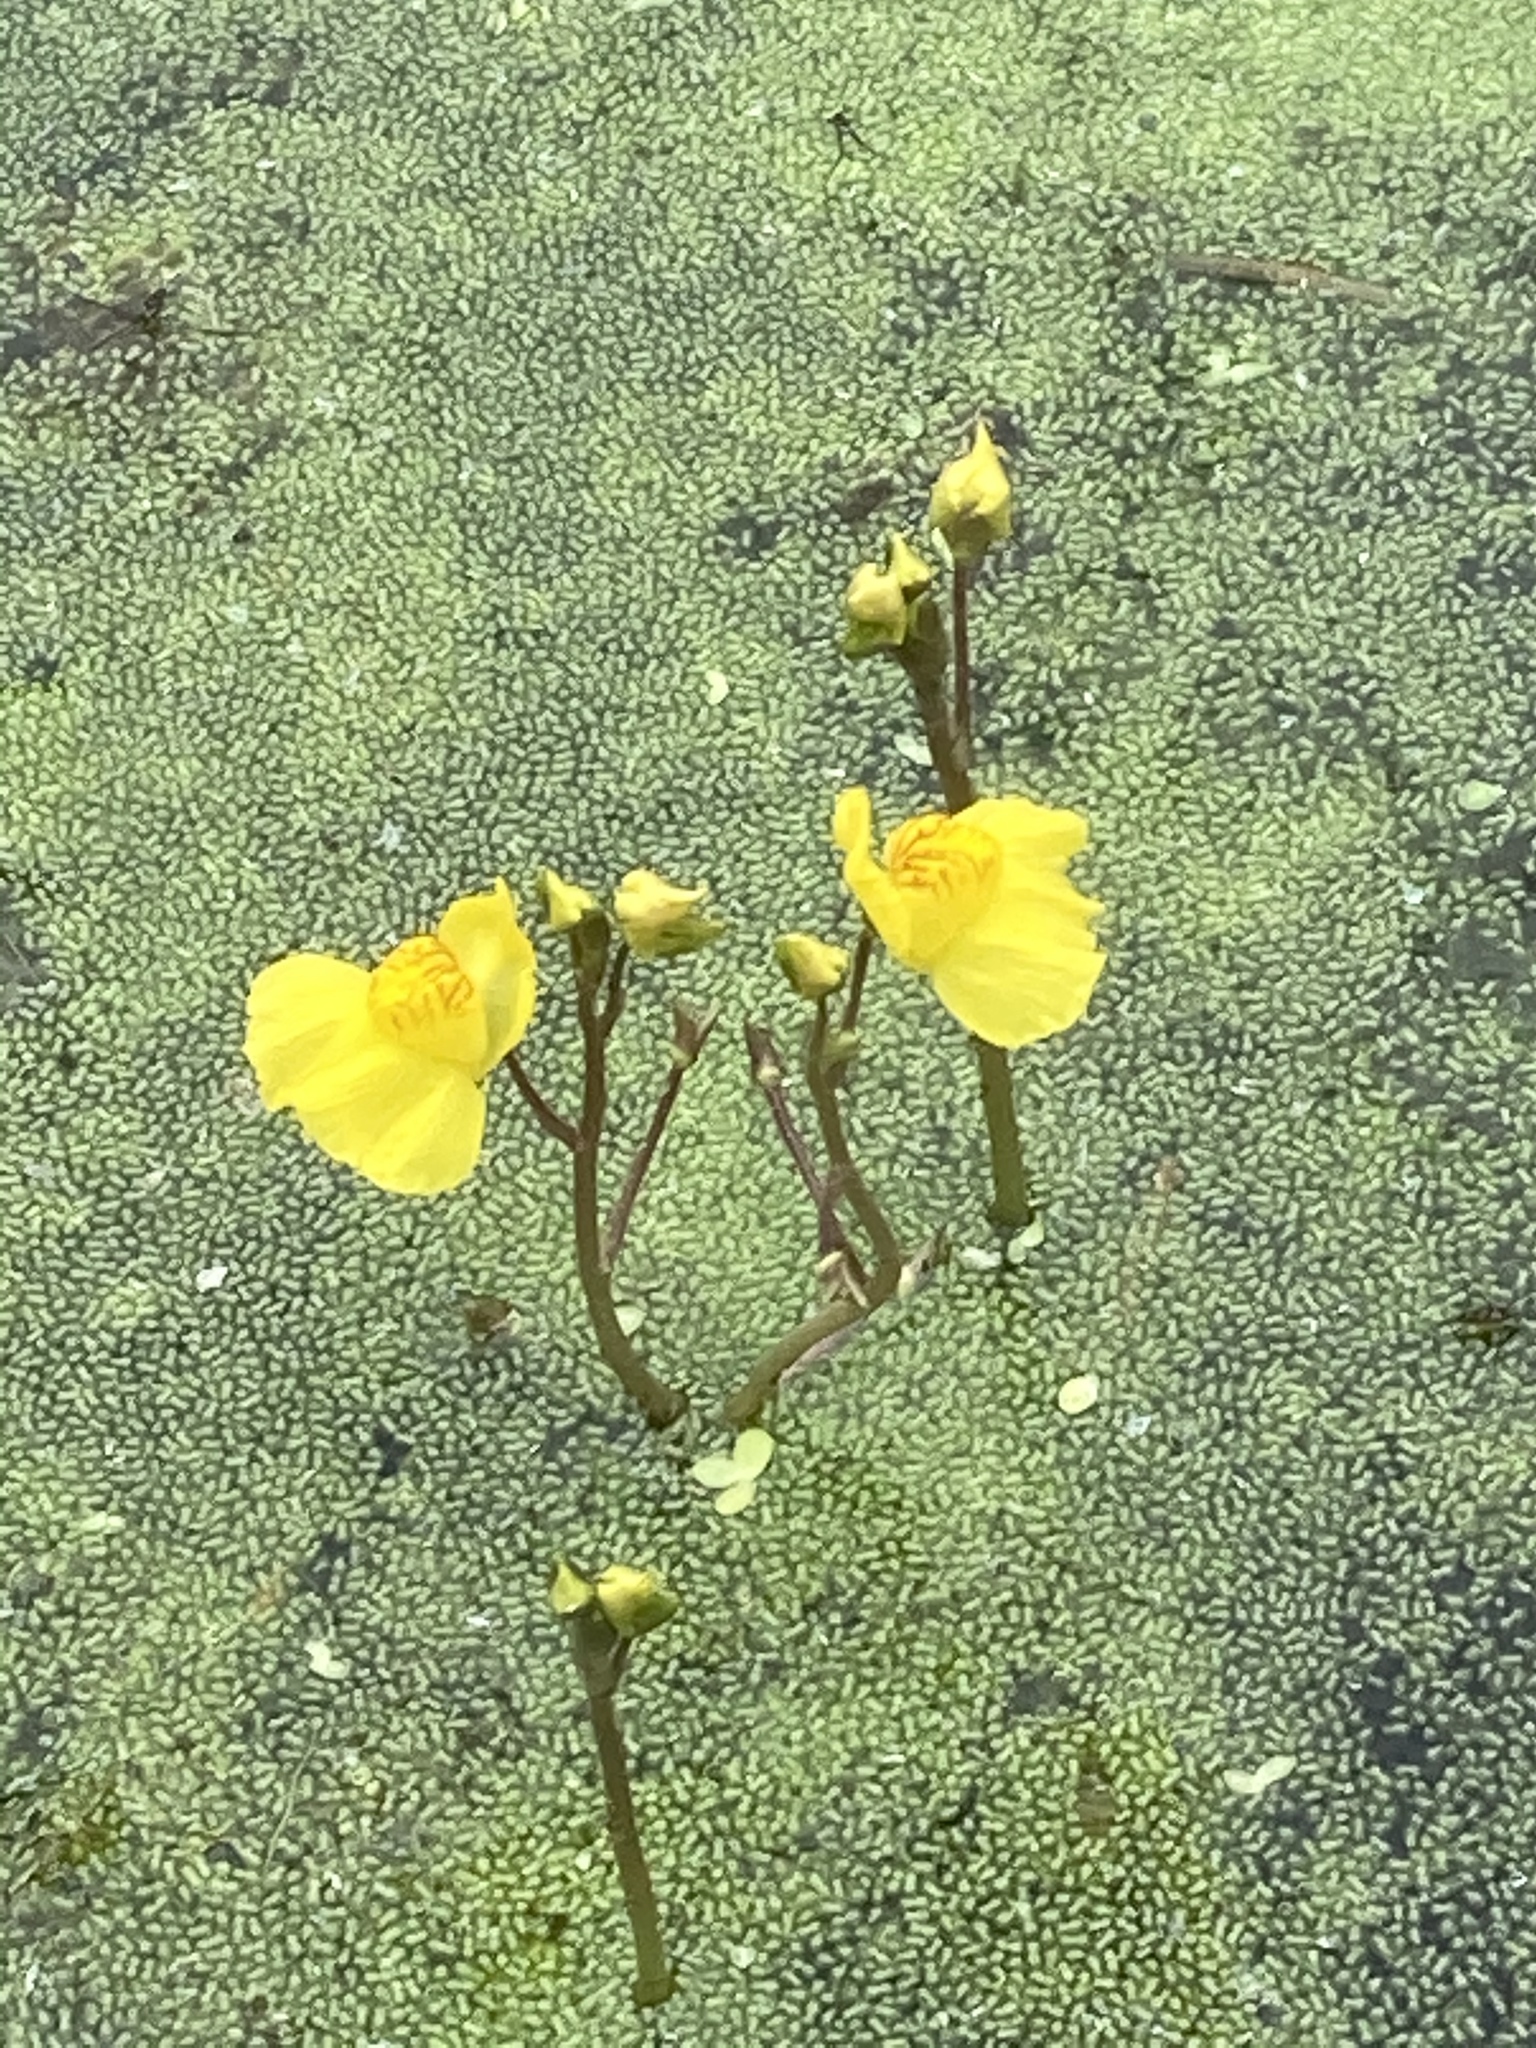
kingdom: Plantae
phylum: Tracheophyta
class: Magnoliopsida
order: Lamiales
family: Lentibulariaceae
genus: Utricularia
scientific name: Utricularia australis
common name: Bladderwort
